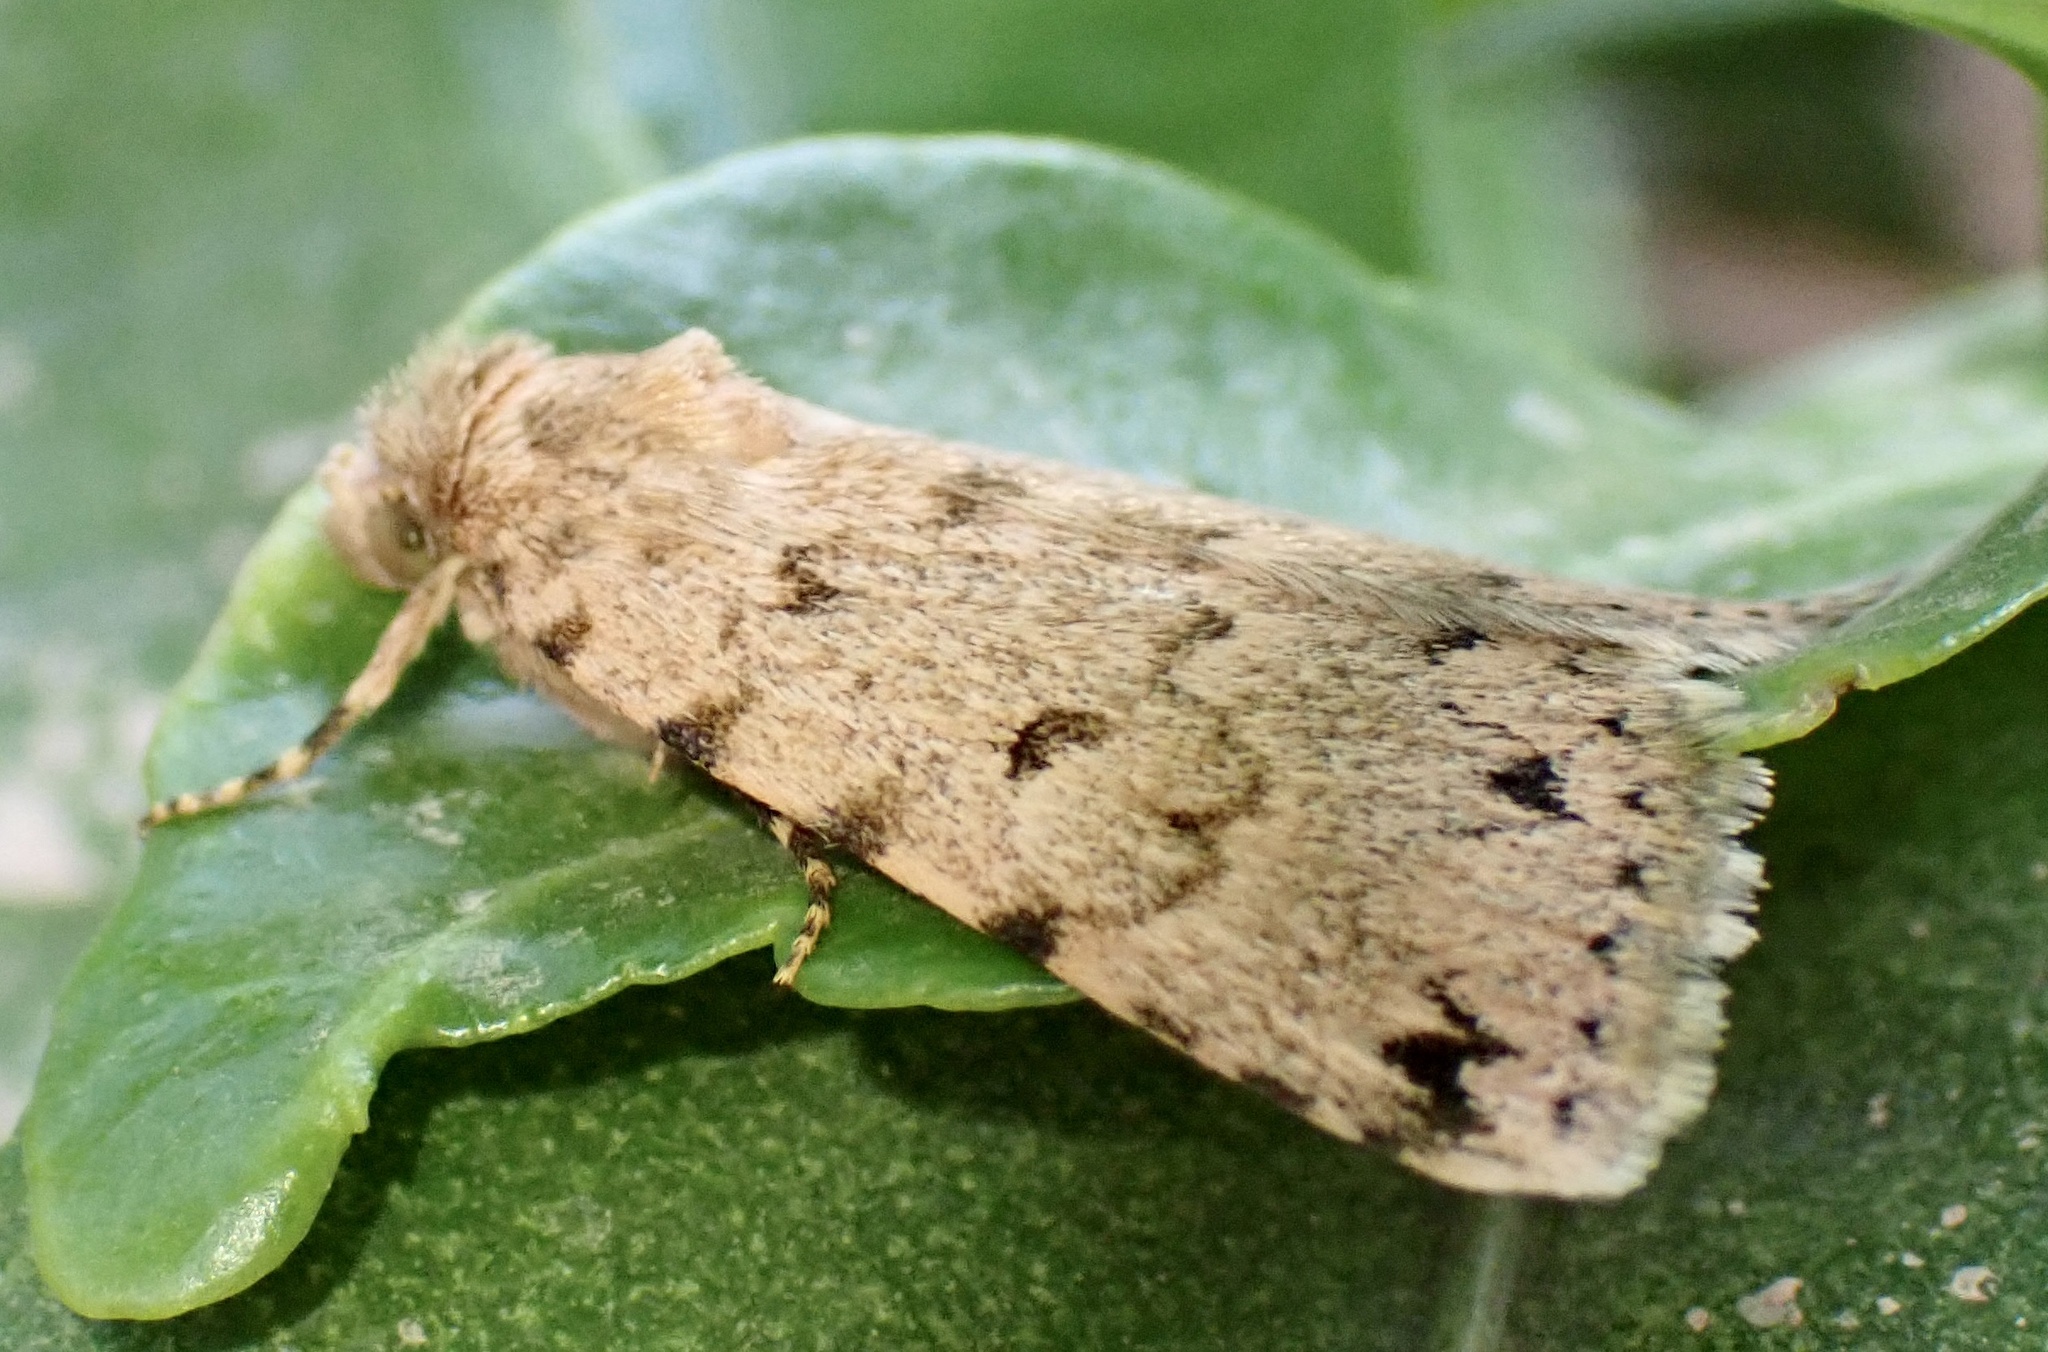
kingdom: Animalia
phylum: Arthropoda
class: Insecta
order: Lepidoptera
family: Erebidae
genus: Autophila
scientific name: Autophila maura
